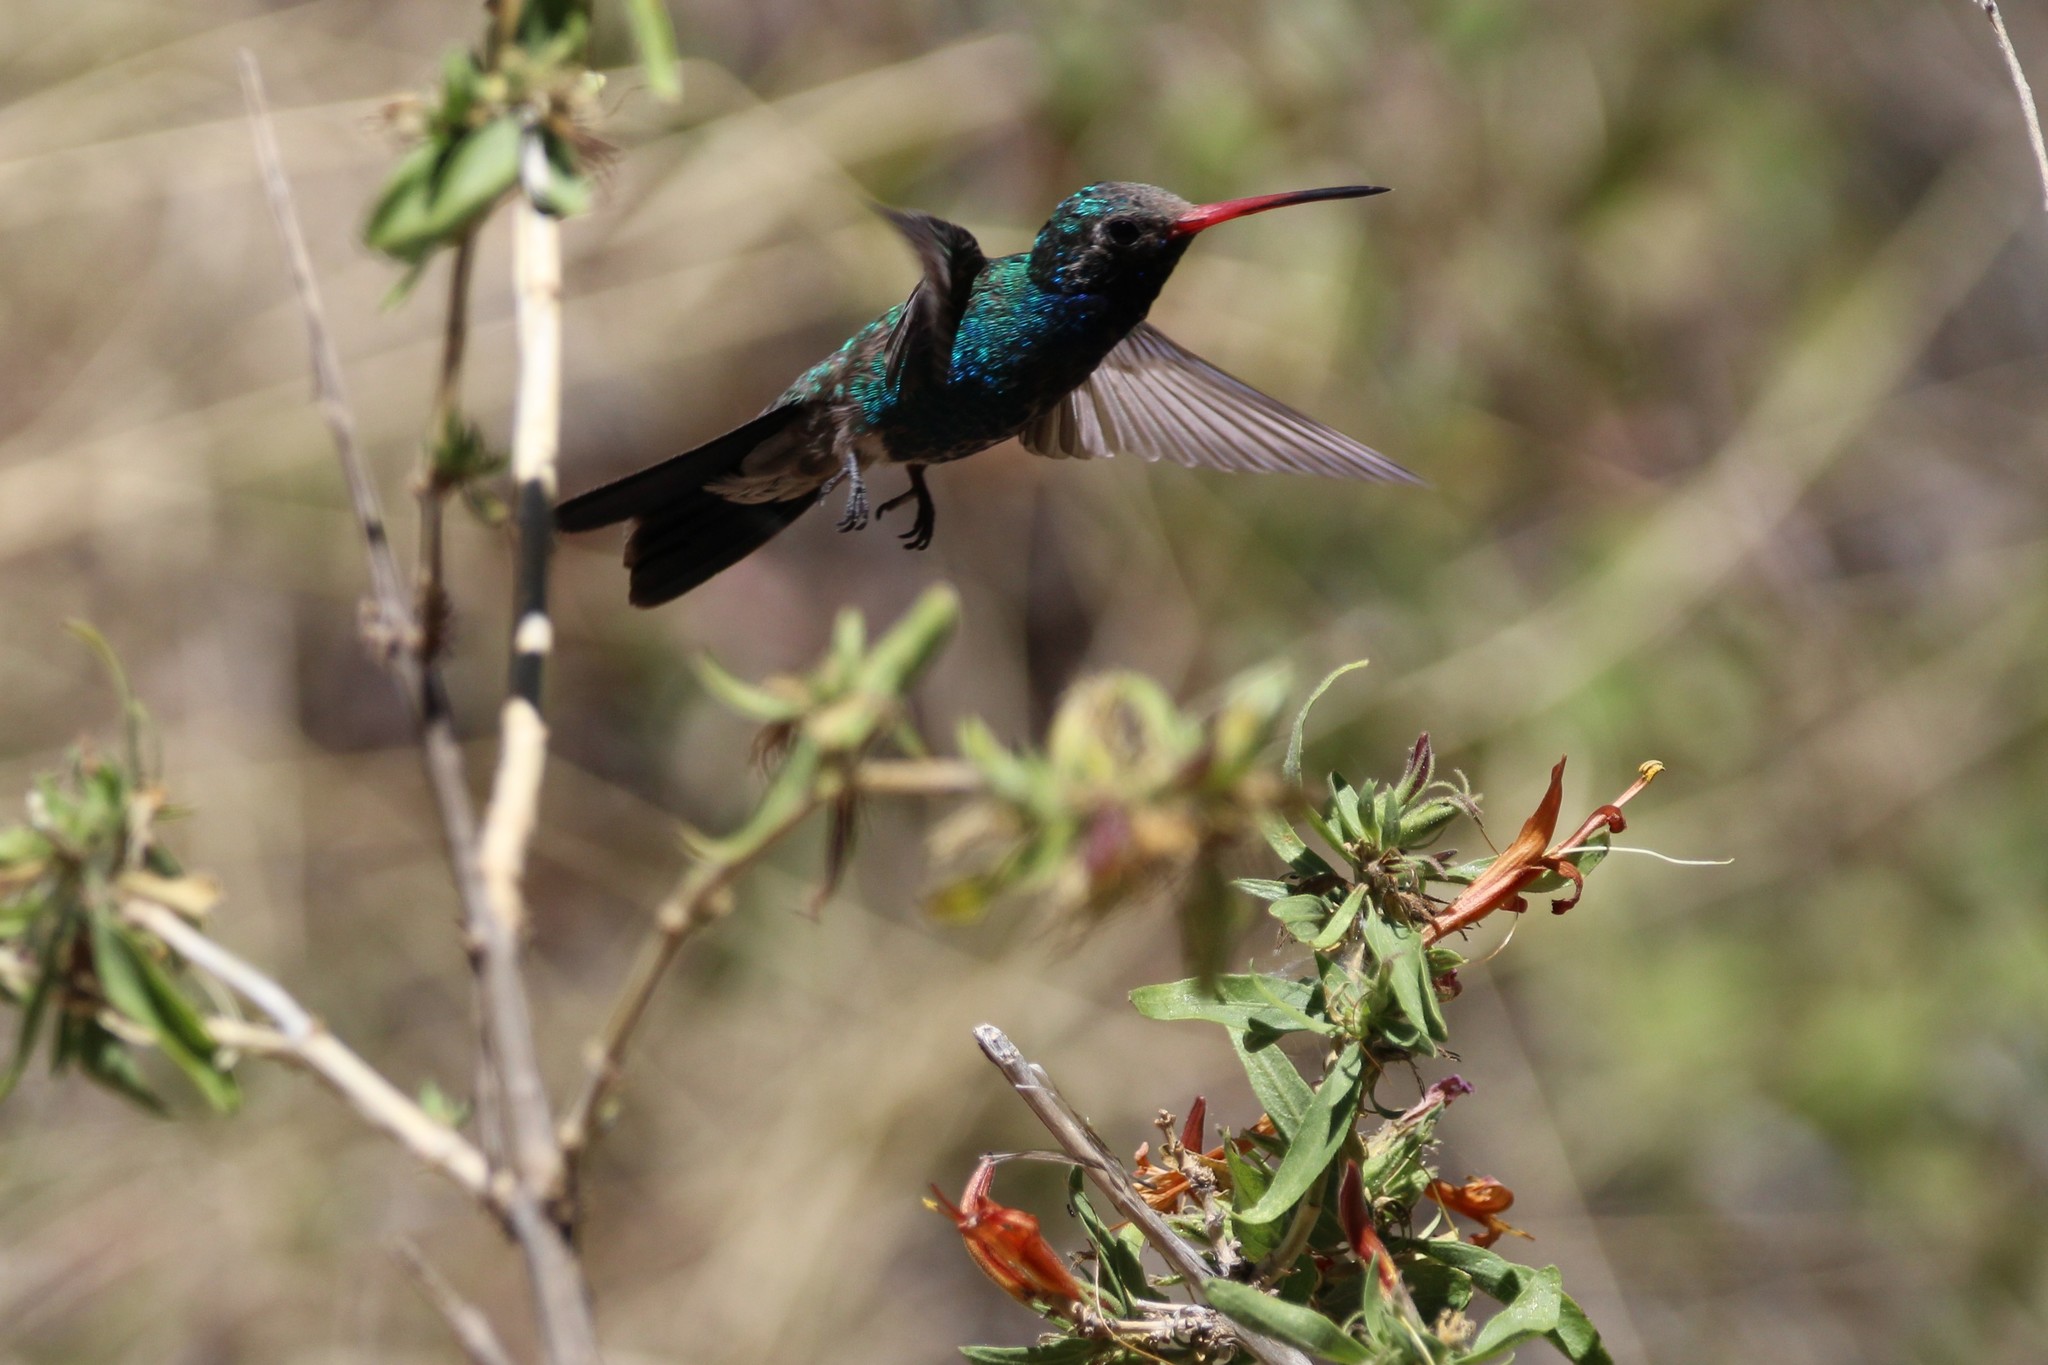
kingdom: Animalia
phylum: Chordata
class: Aves
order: Apodiformes
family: Trochilidae
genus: Cynanthus
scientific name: Cynanthus latirostris
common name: Broad-billed hummingbird
